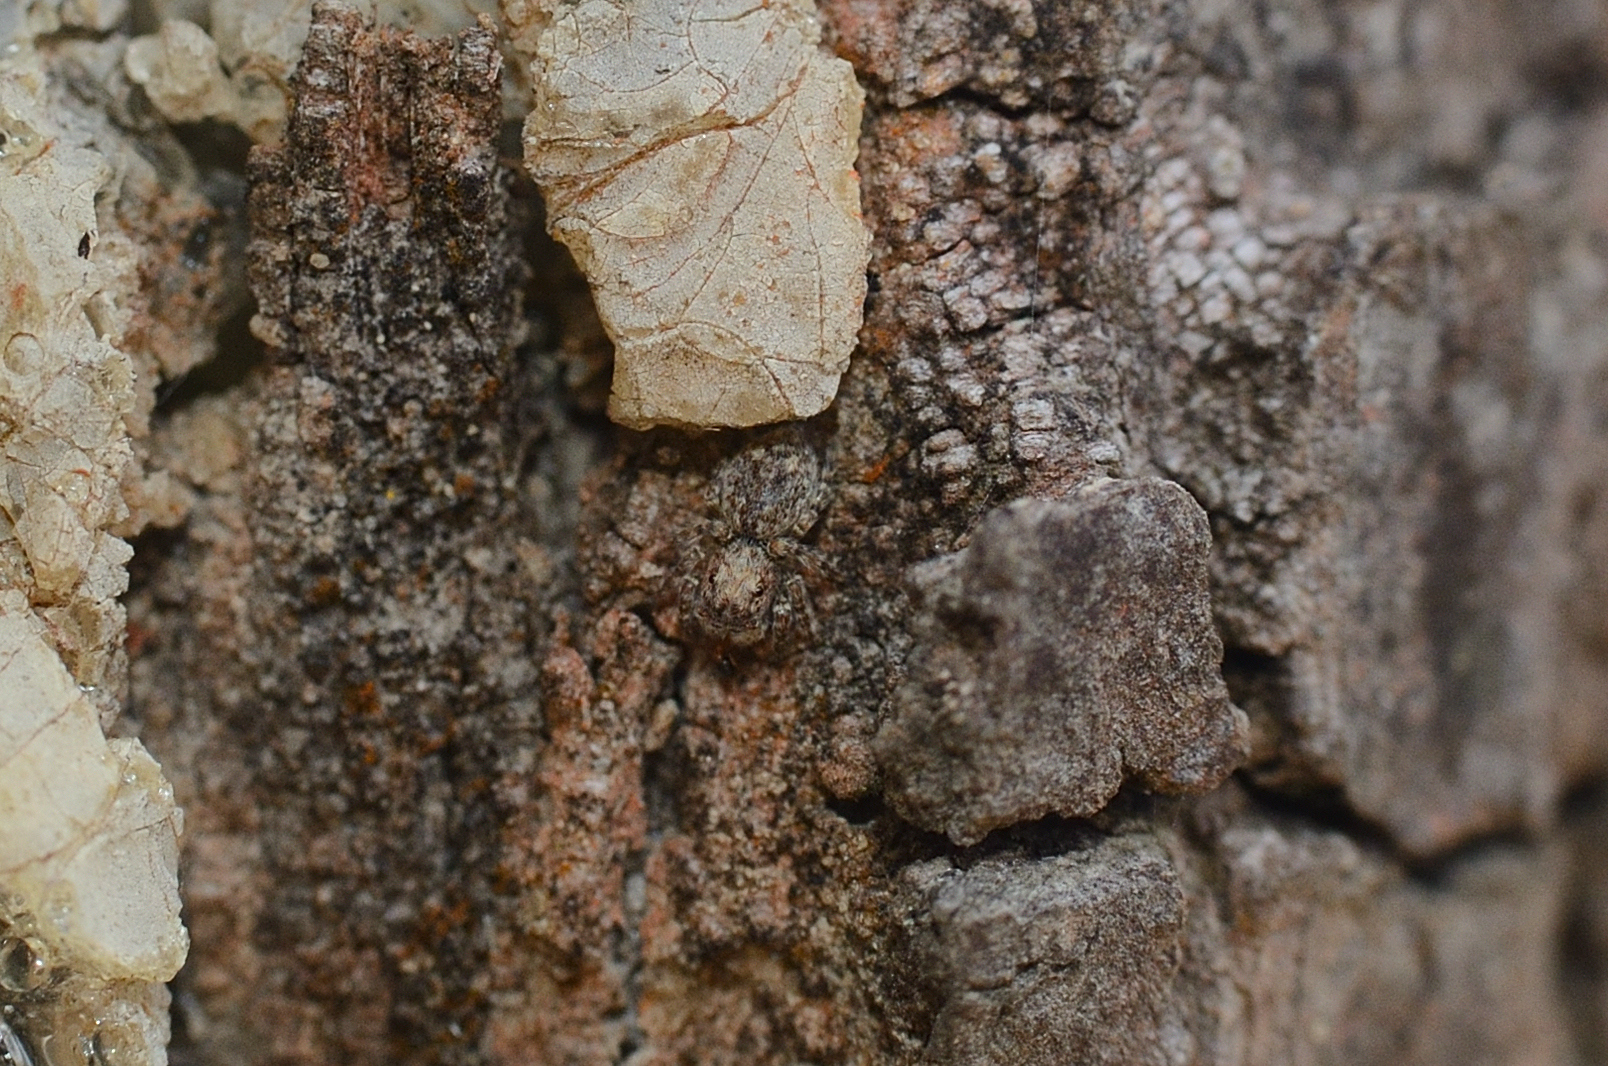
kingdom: Animalia
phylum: Arthropoda
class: Arachnida
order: Araneae
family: Salticidae
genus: Curubis
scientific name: Curubis tetrica
